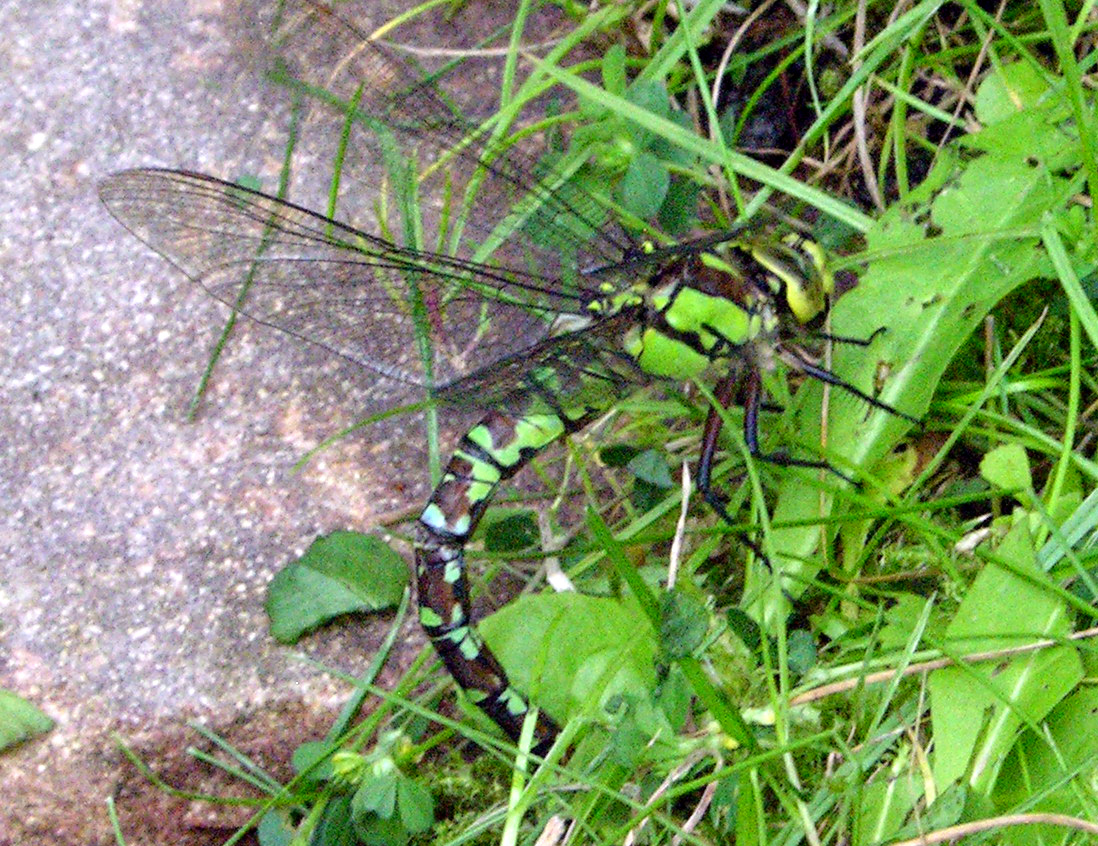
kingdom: Animalia
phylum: Arthropoda
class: Insecta
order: Odonata
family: Aeshnidae
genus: Aeshna
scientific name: Aeshna cyanea
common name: Southern hawker
